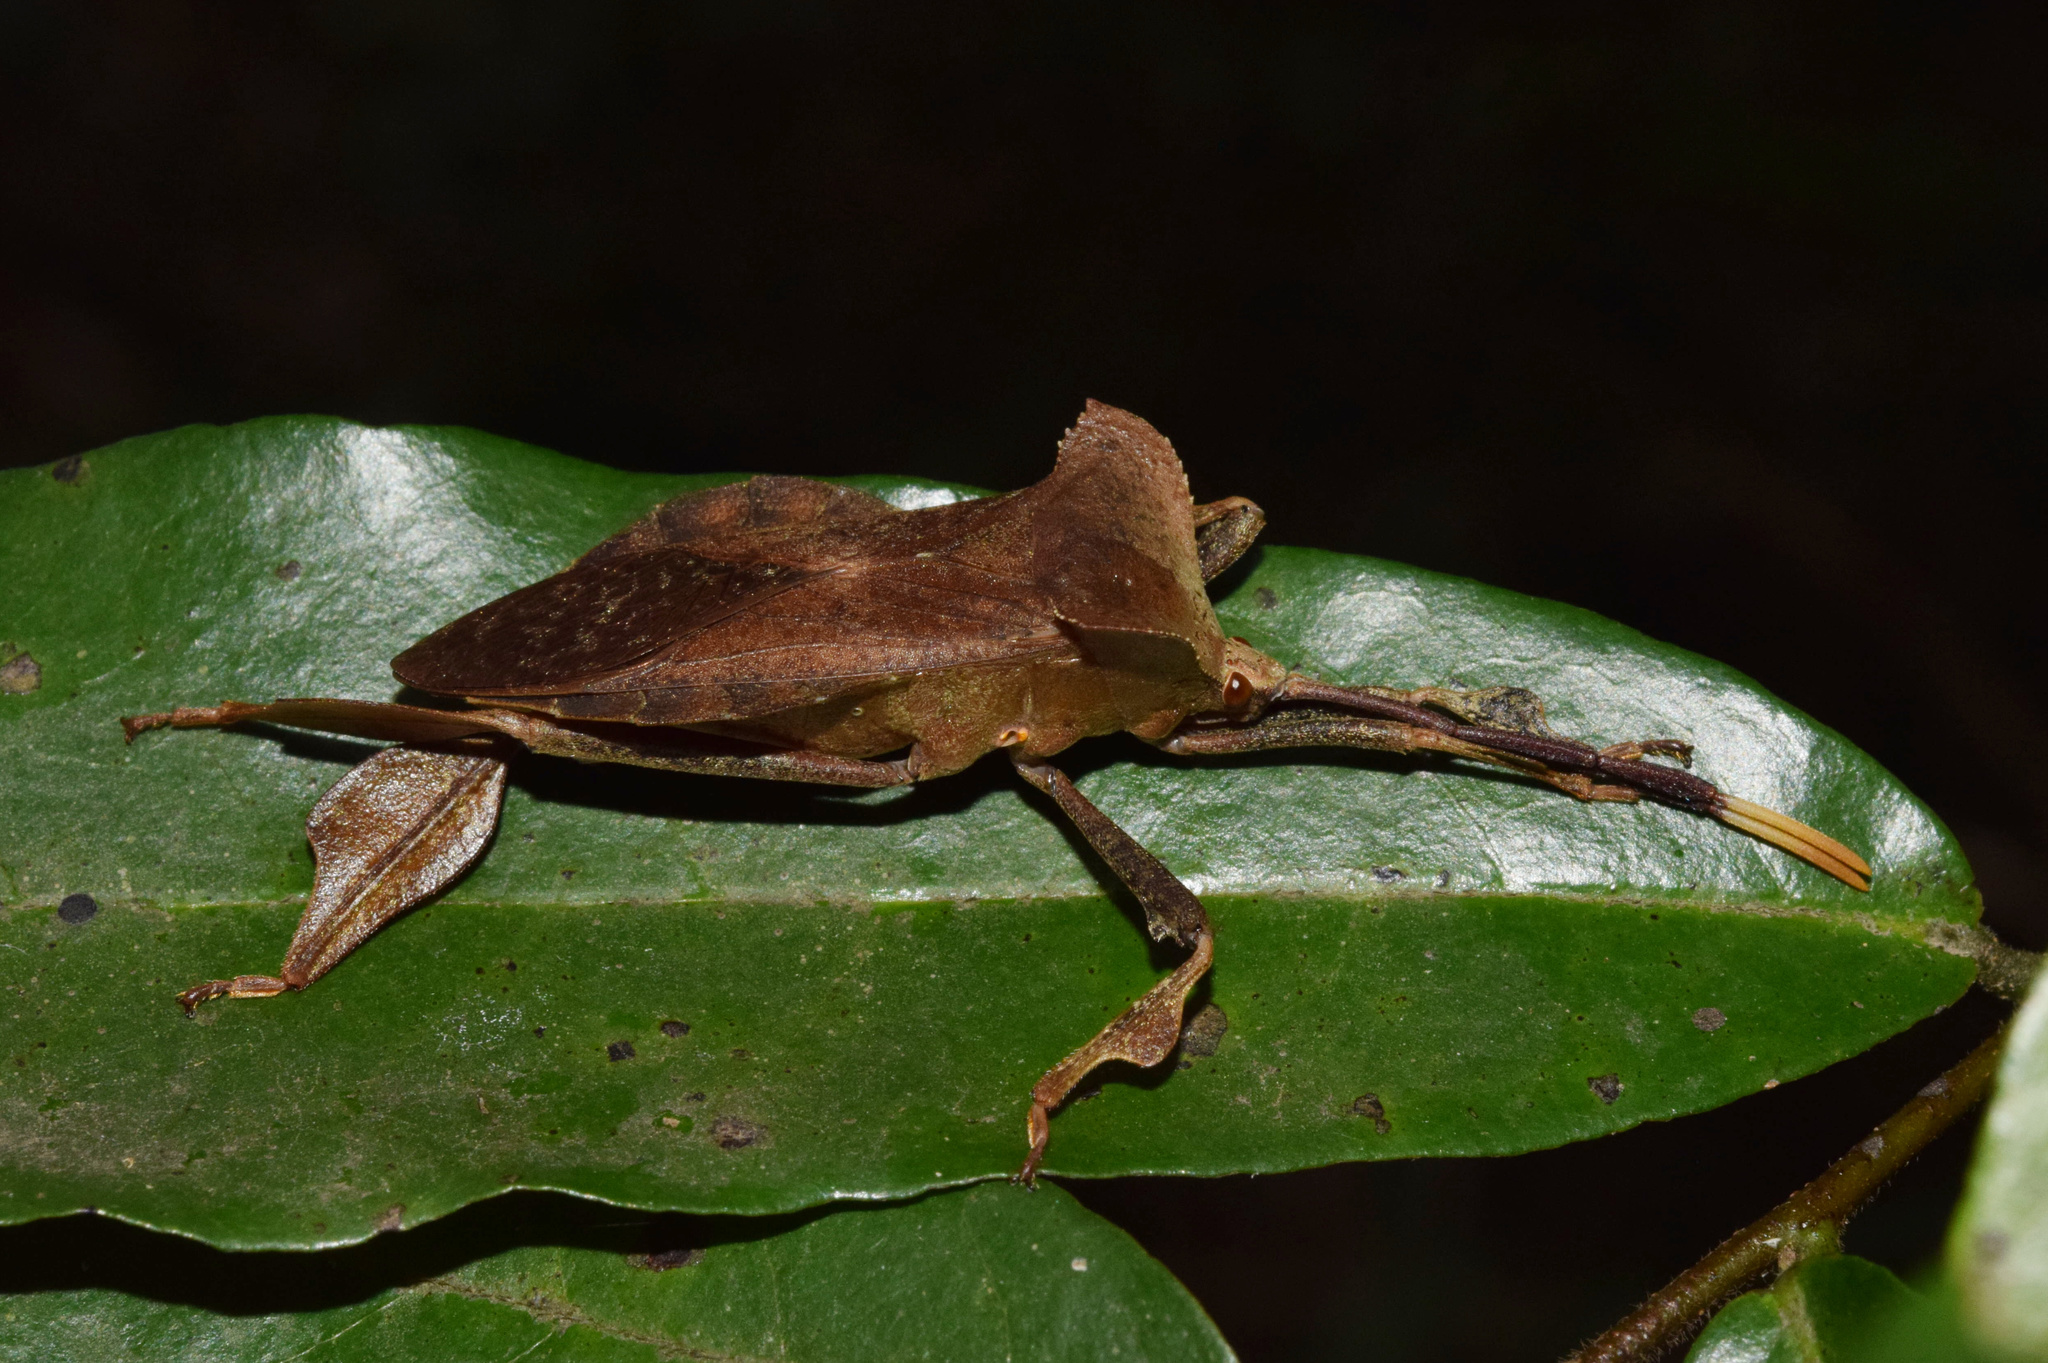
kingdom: Animalia
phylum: Arthropoda
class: Insecta
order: Hemiptera
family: Coreidae
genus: Phyllogonia
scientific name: Phyllogonia limosa
